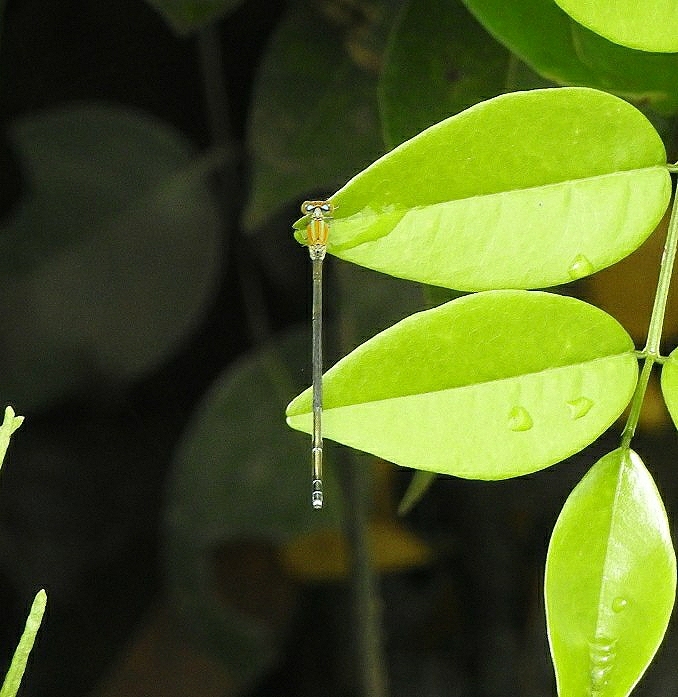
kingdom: Animalia
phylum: Arthropoda
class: Insecta
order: Odonata
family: Coenagrionidae
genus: Pseudagrion
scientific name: Pseudagrion microcephalum
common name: Blue riverdamsel
